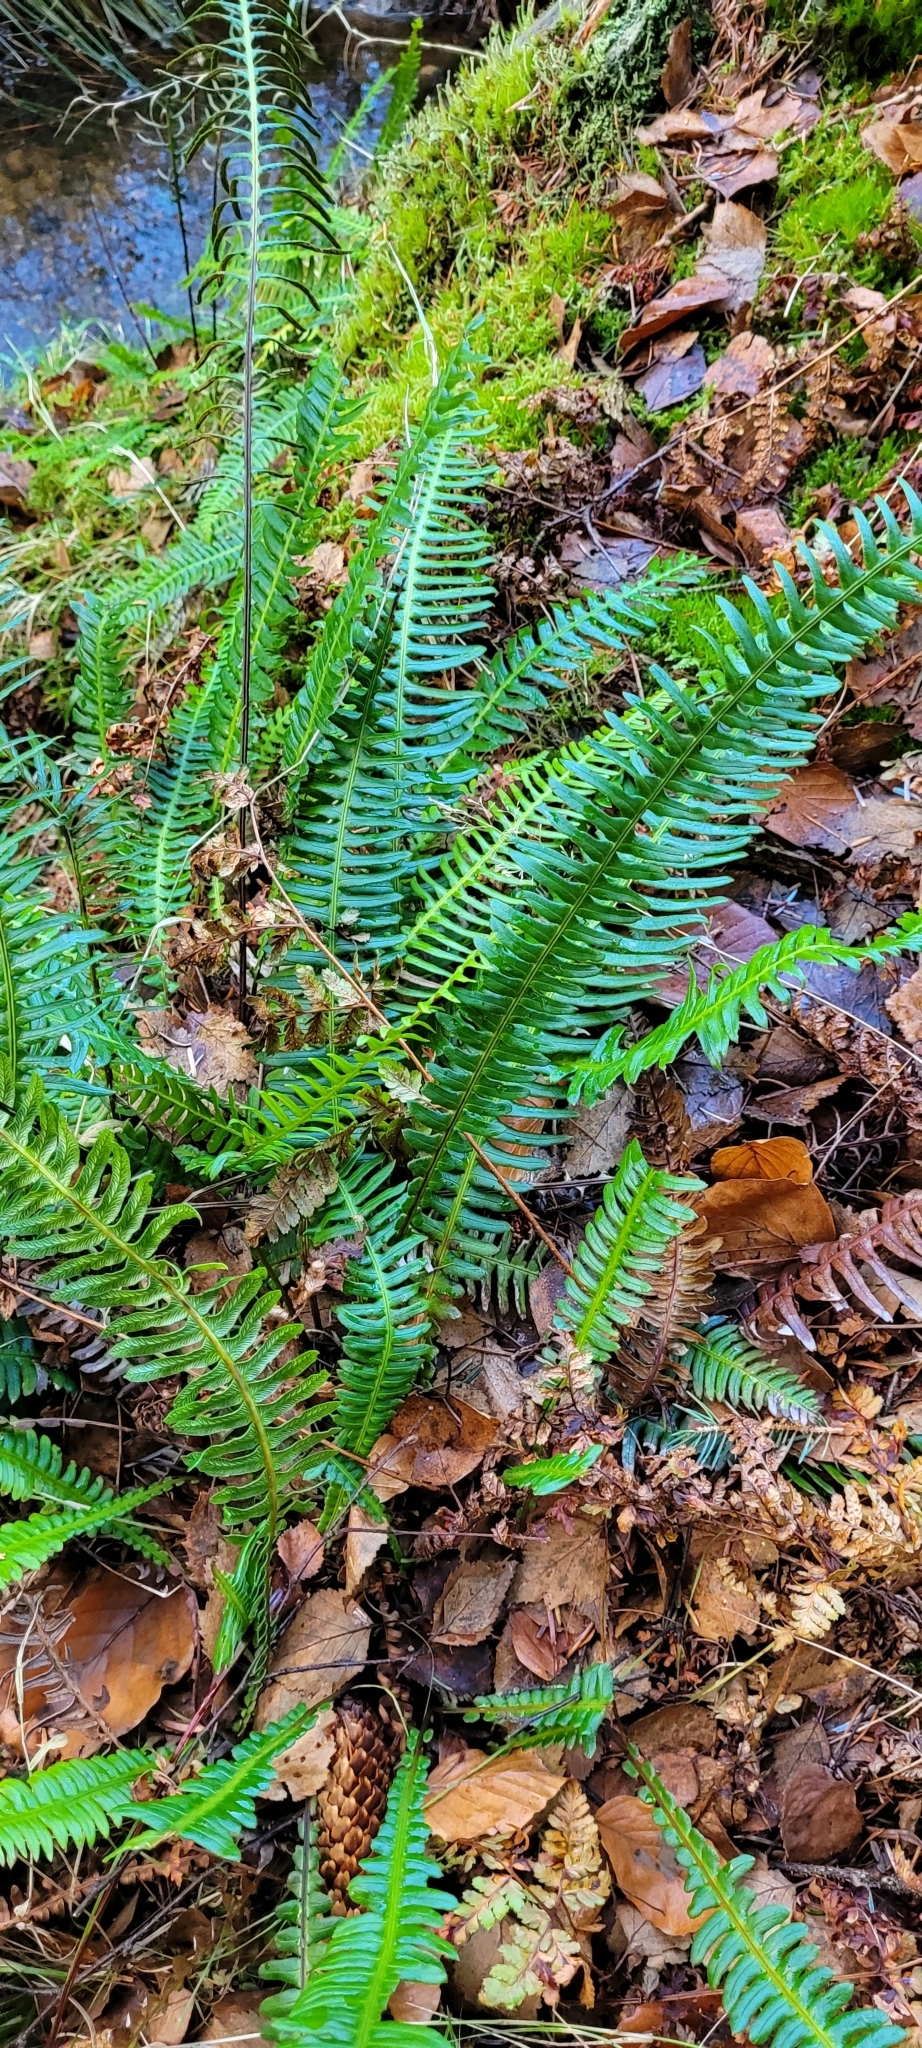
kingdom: Plantae
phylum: Tracheophyta
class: Polypodiopsida
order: Polypodiales
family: Blechnaceae
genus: Struthiopteris
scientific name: Struthiopteris spicant
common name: Deer fern
